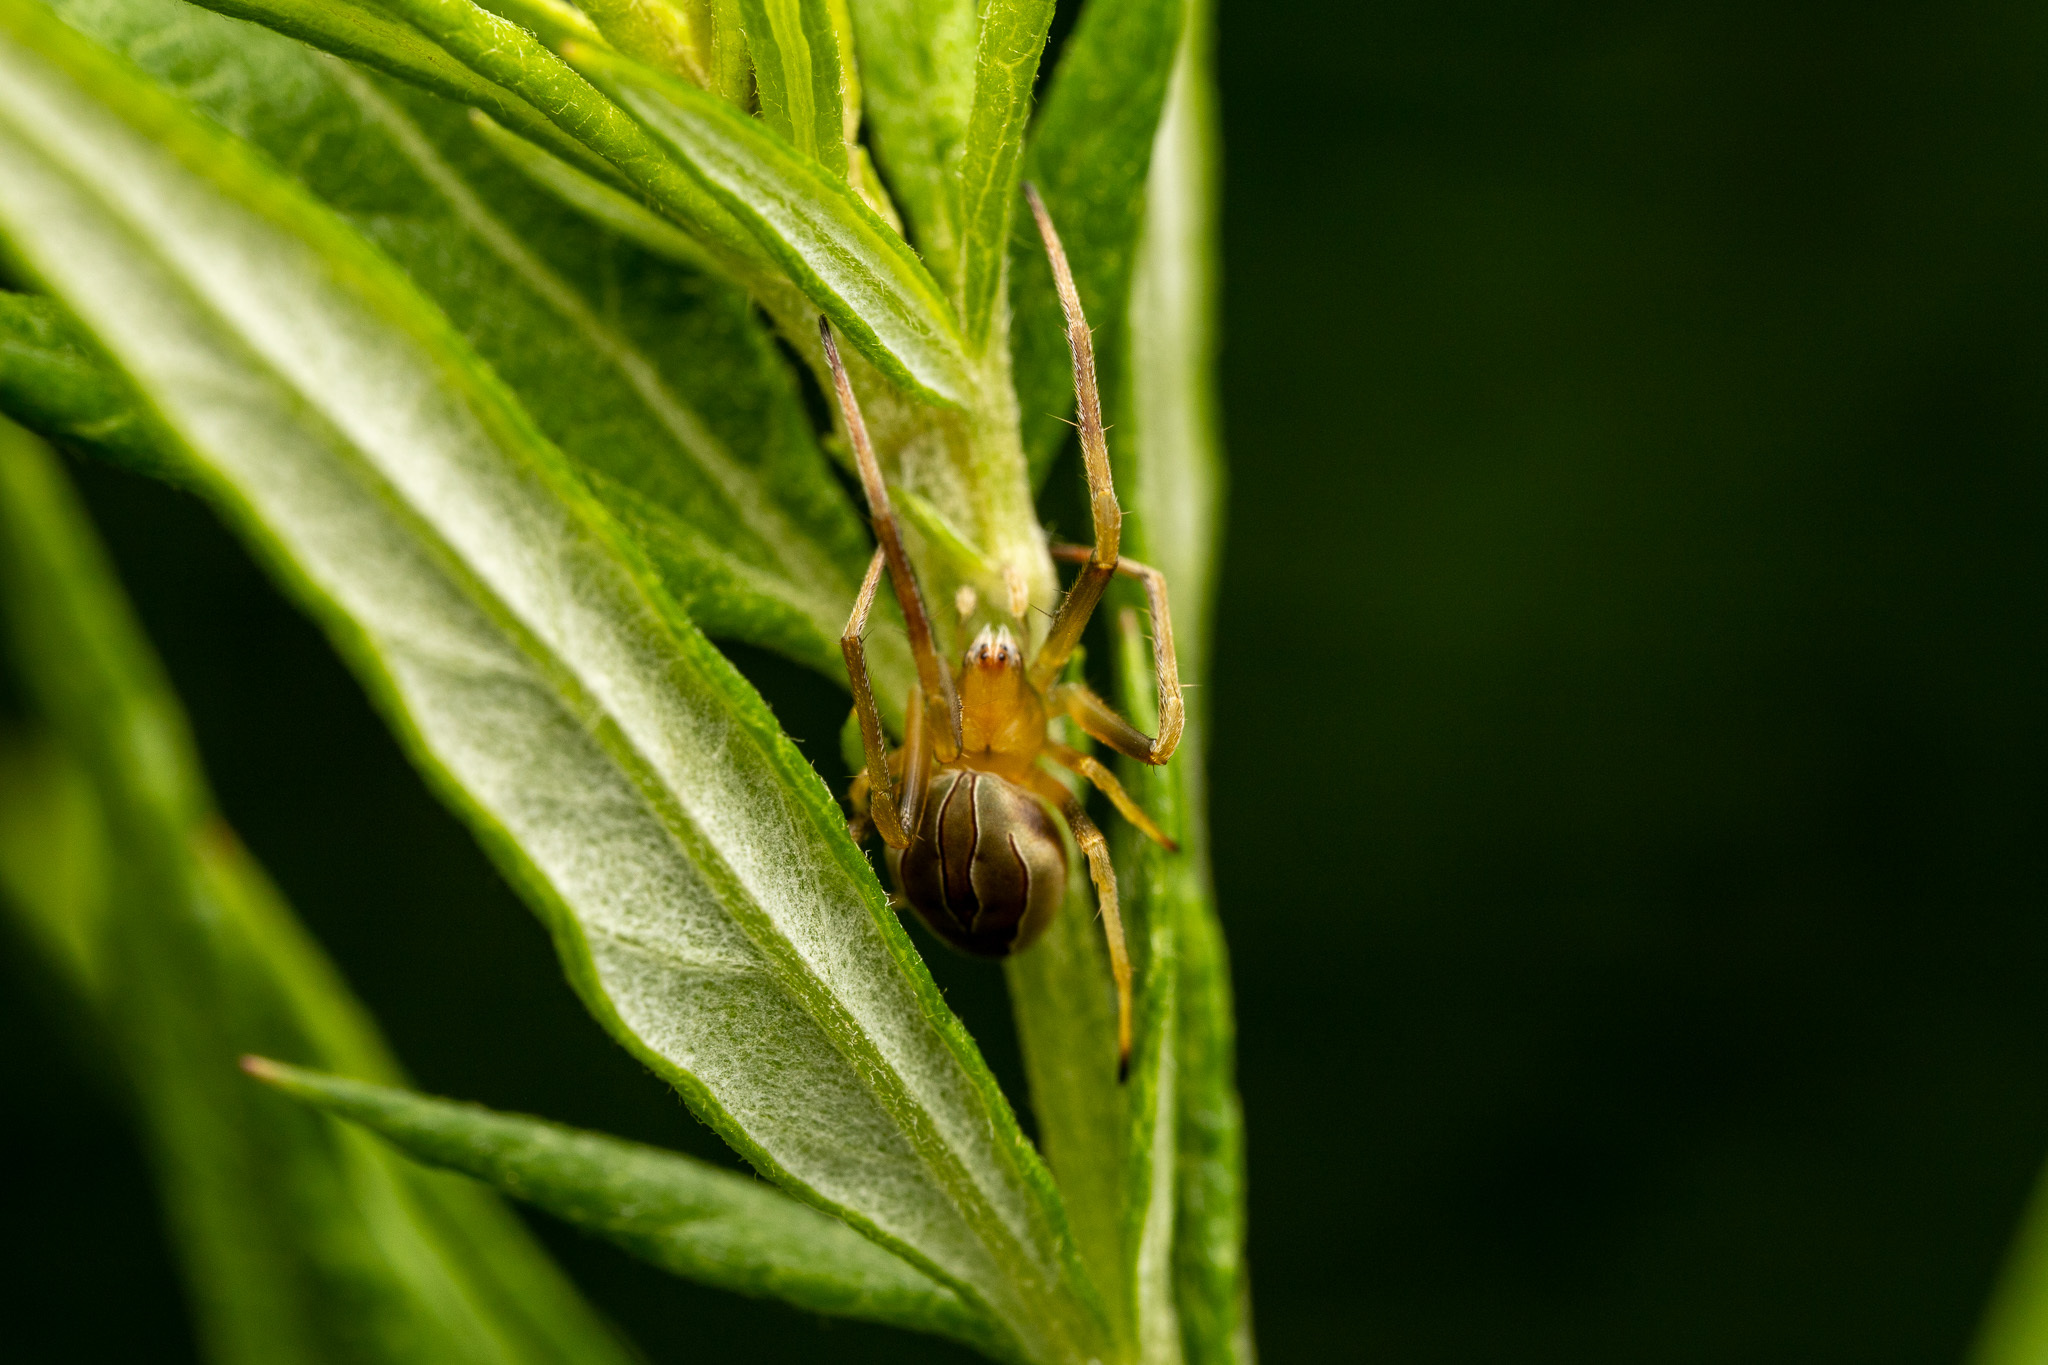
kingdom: Animalia
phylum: Arthropoda
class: Arachnida
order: Araneae
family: Araneidae
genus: Acacesia
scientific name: Acacesia hamata
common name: Orb weavers
